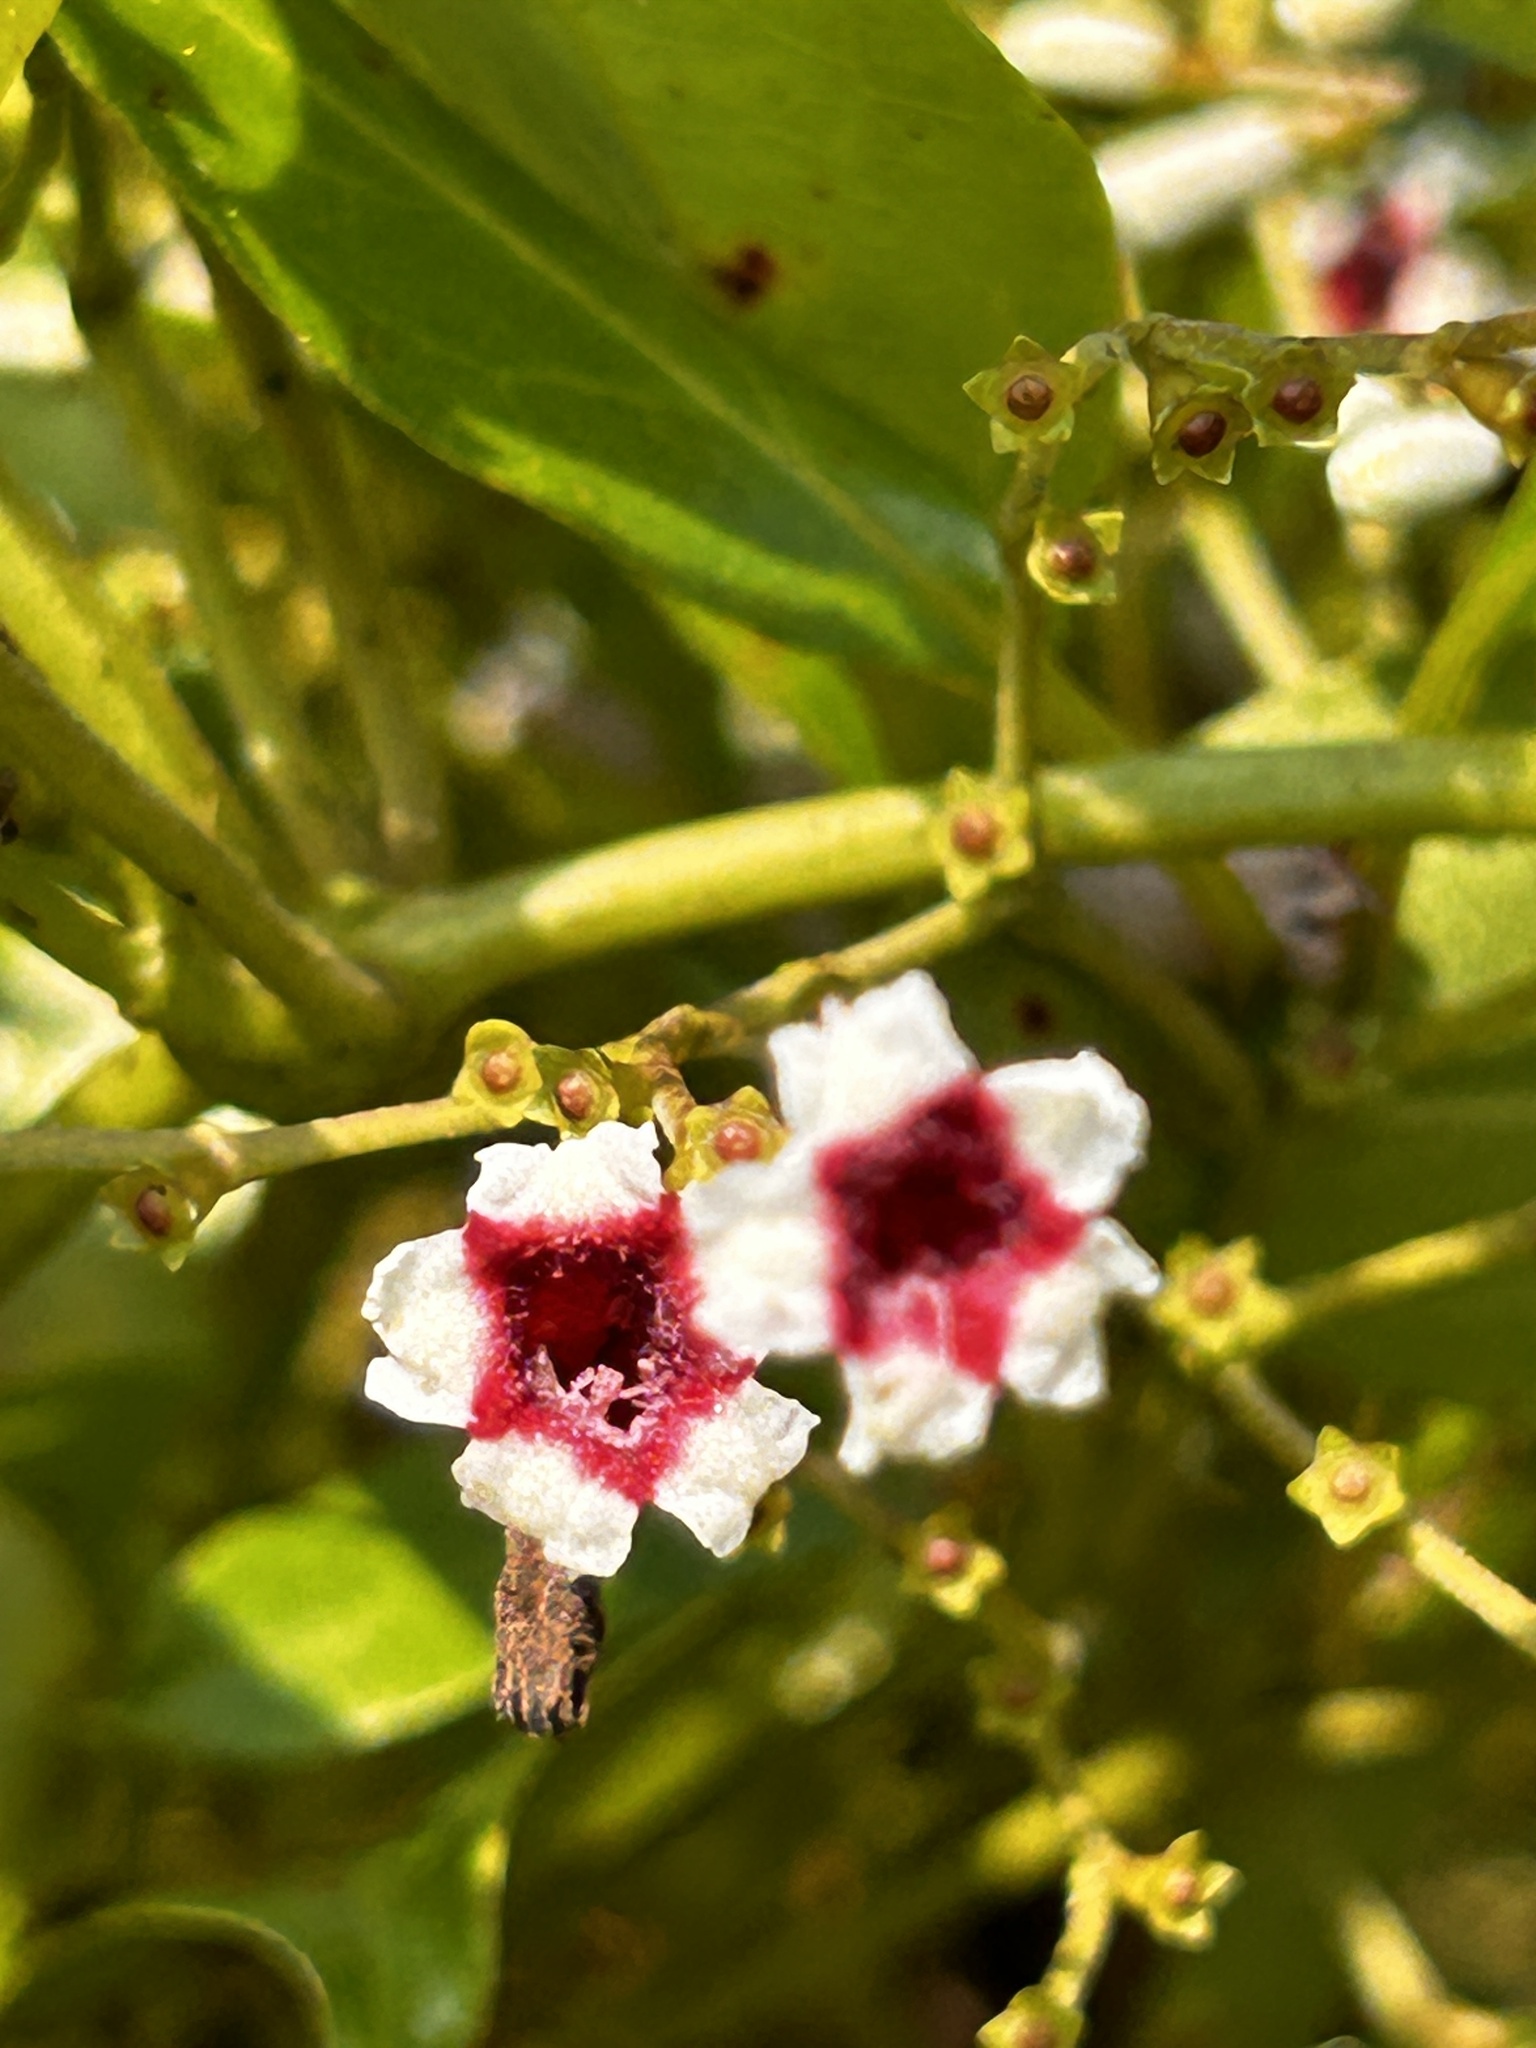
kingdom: Plantae
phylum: Tracheophyta
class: Magnoliopsida
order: Gentianales
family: Rubiaceae
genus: Paederia
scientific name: Paederia foetida
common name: Stinkvine
